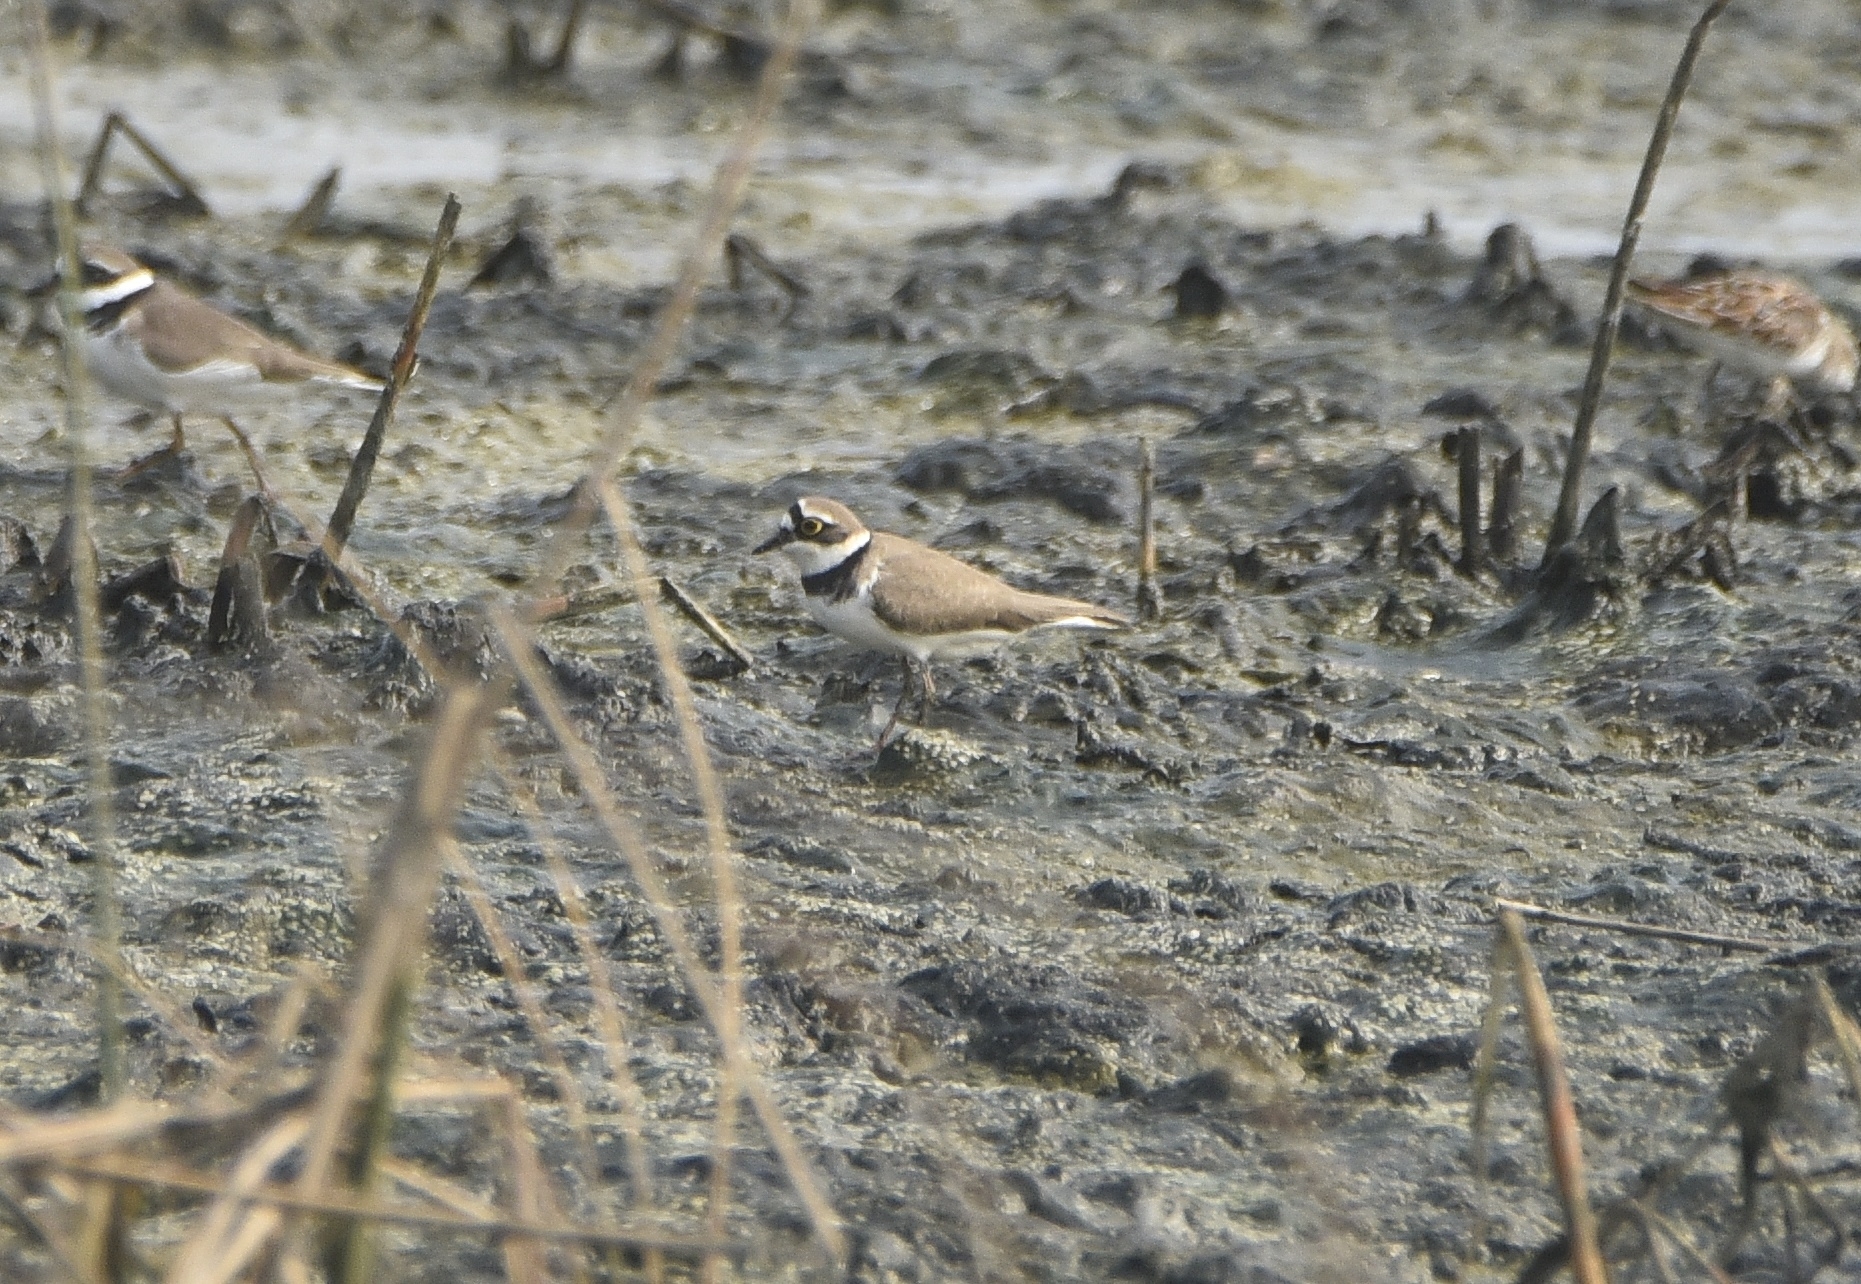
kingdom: Animalia
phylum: Chordata
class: Aves
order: Charadriiformes
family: Charadriidae
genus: Charadrius
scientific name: Charadrius dubius
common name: Little ringed plover
